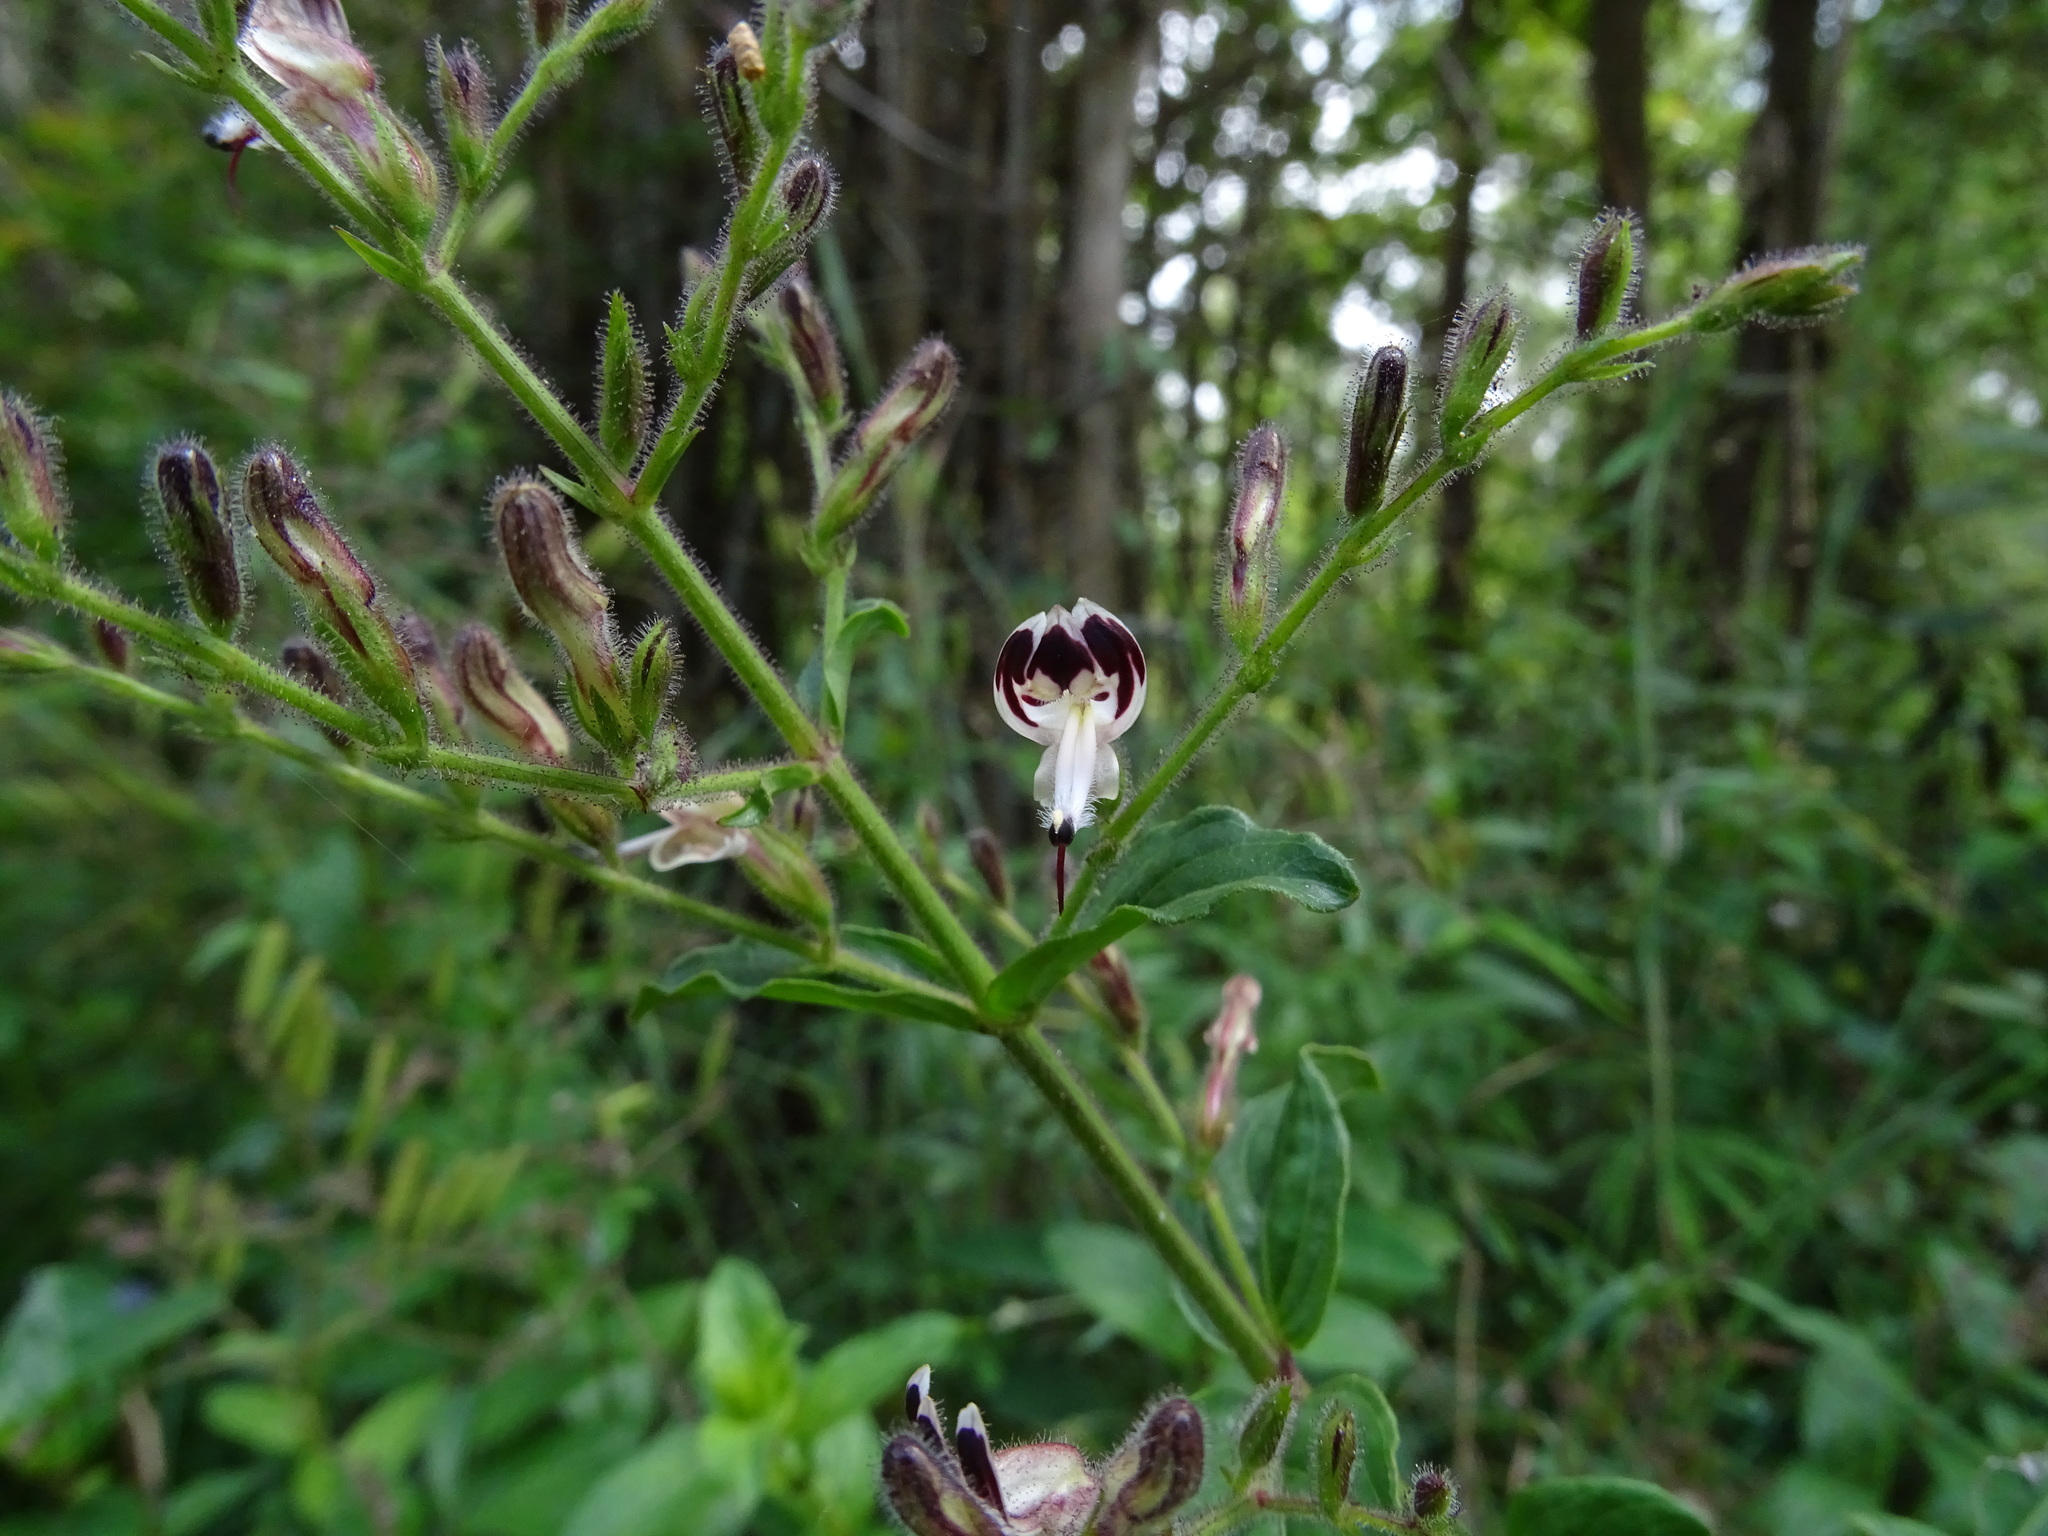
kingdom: Plantae
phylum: Tracheophyta
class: Magnoliopsida
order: Lamiales
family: Acanthaceae
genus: Andrographis
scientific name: Andrographis paniculata
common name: Green chireta
